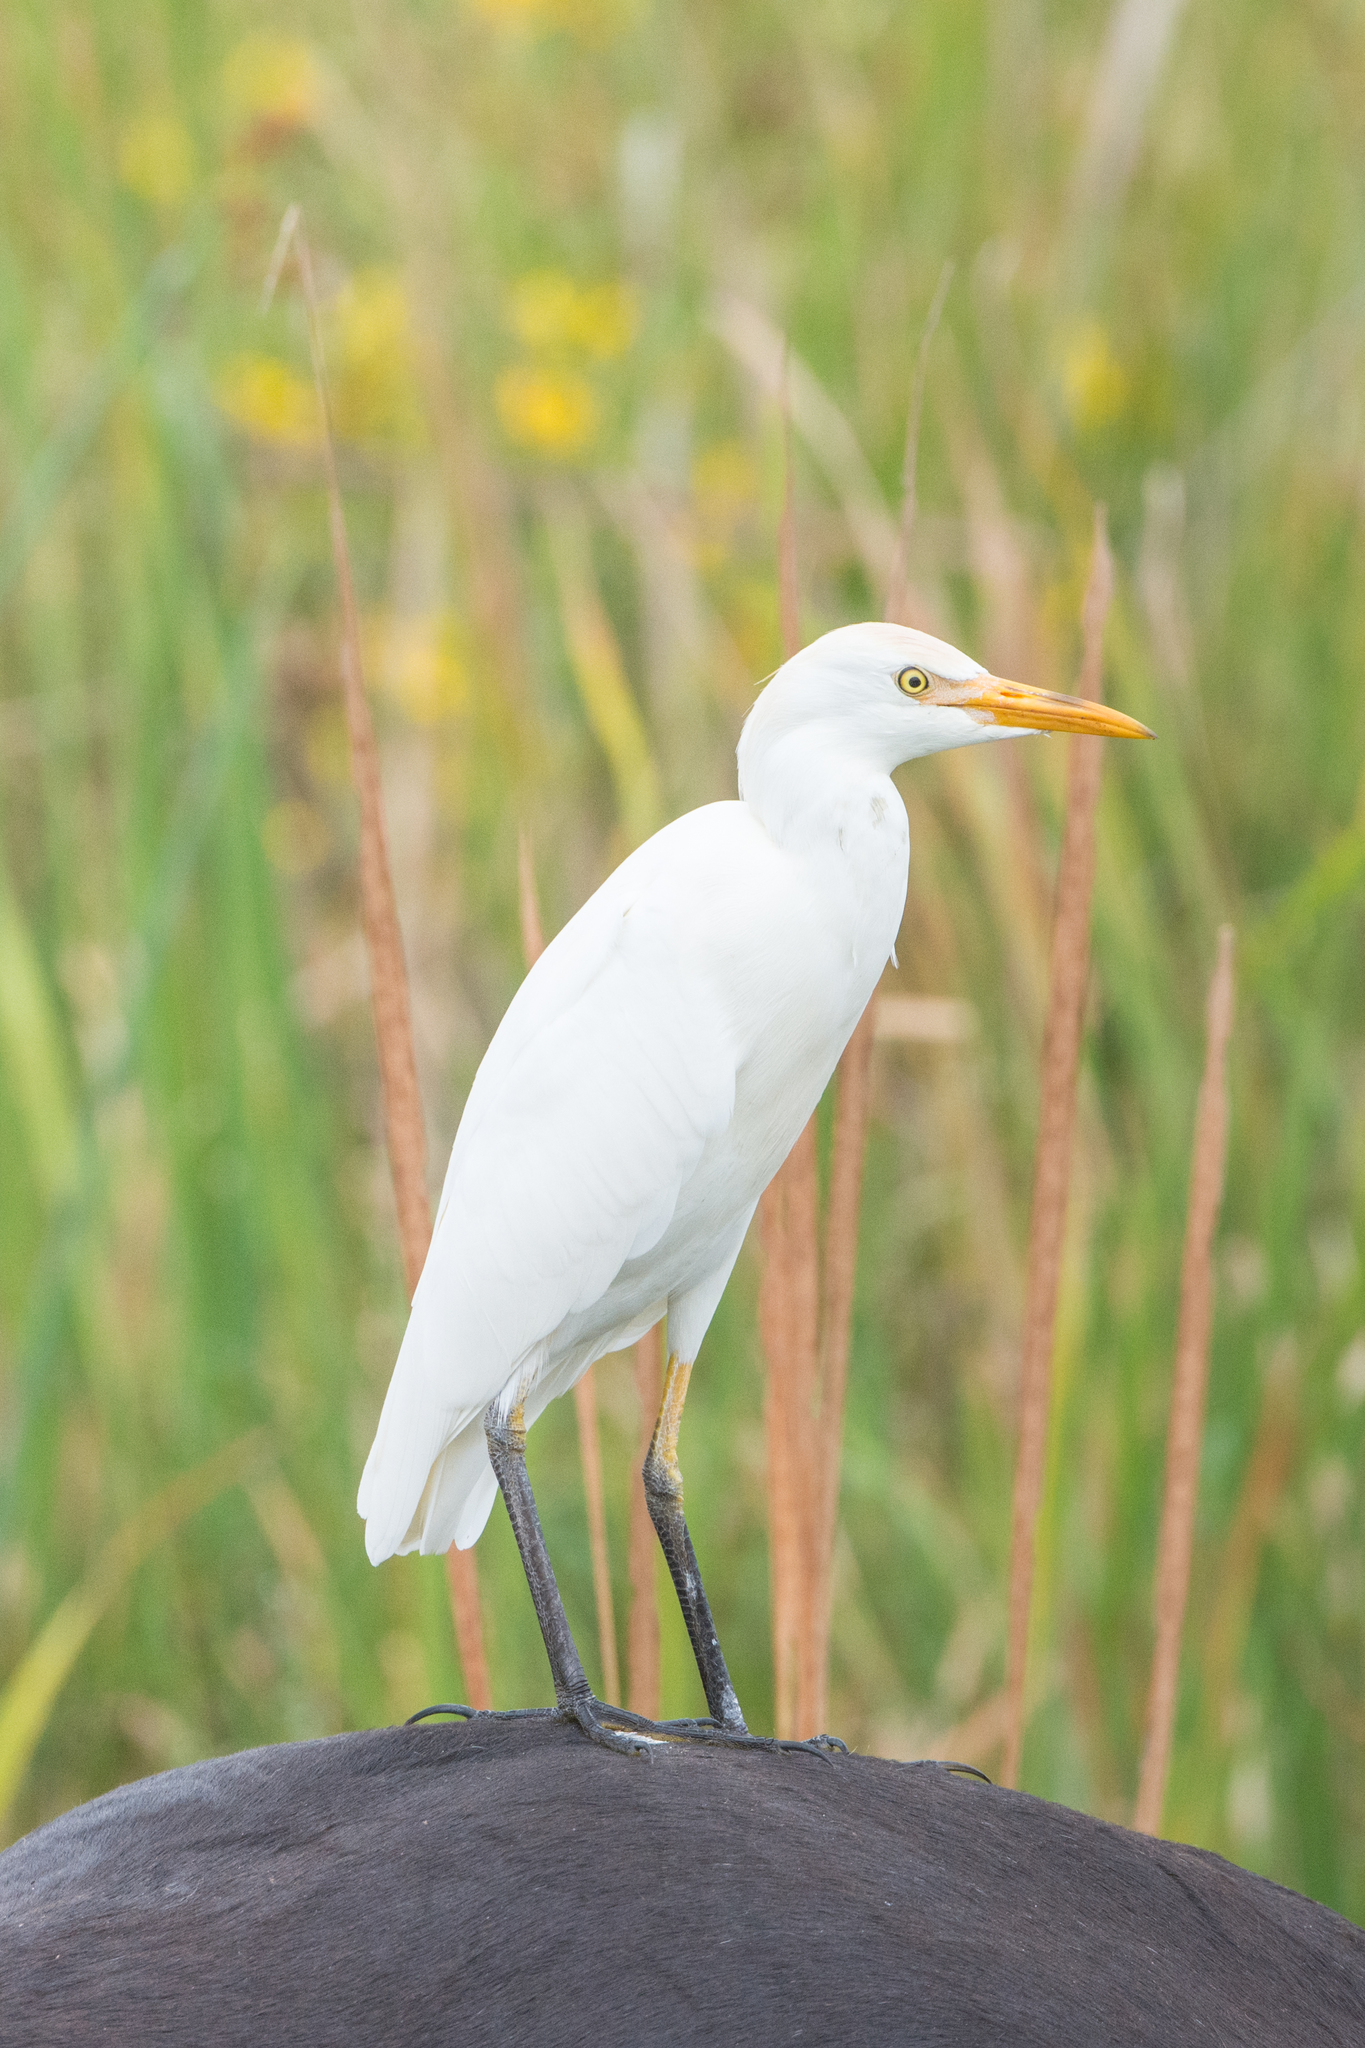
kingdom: Animalia
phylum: Chordata
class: Aves
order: Pelecaniformes
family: Ardeidae
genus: Bubulcus
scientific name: Bubulcus ibis
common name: Cattle egret
